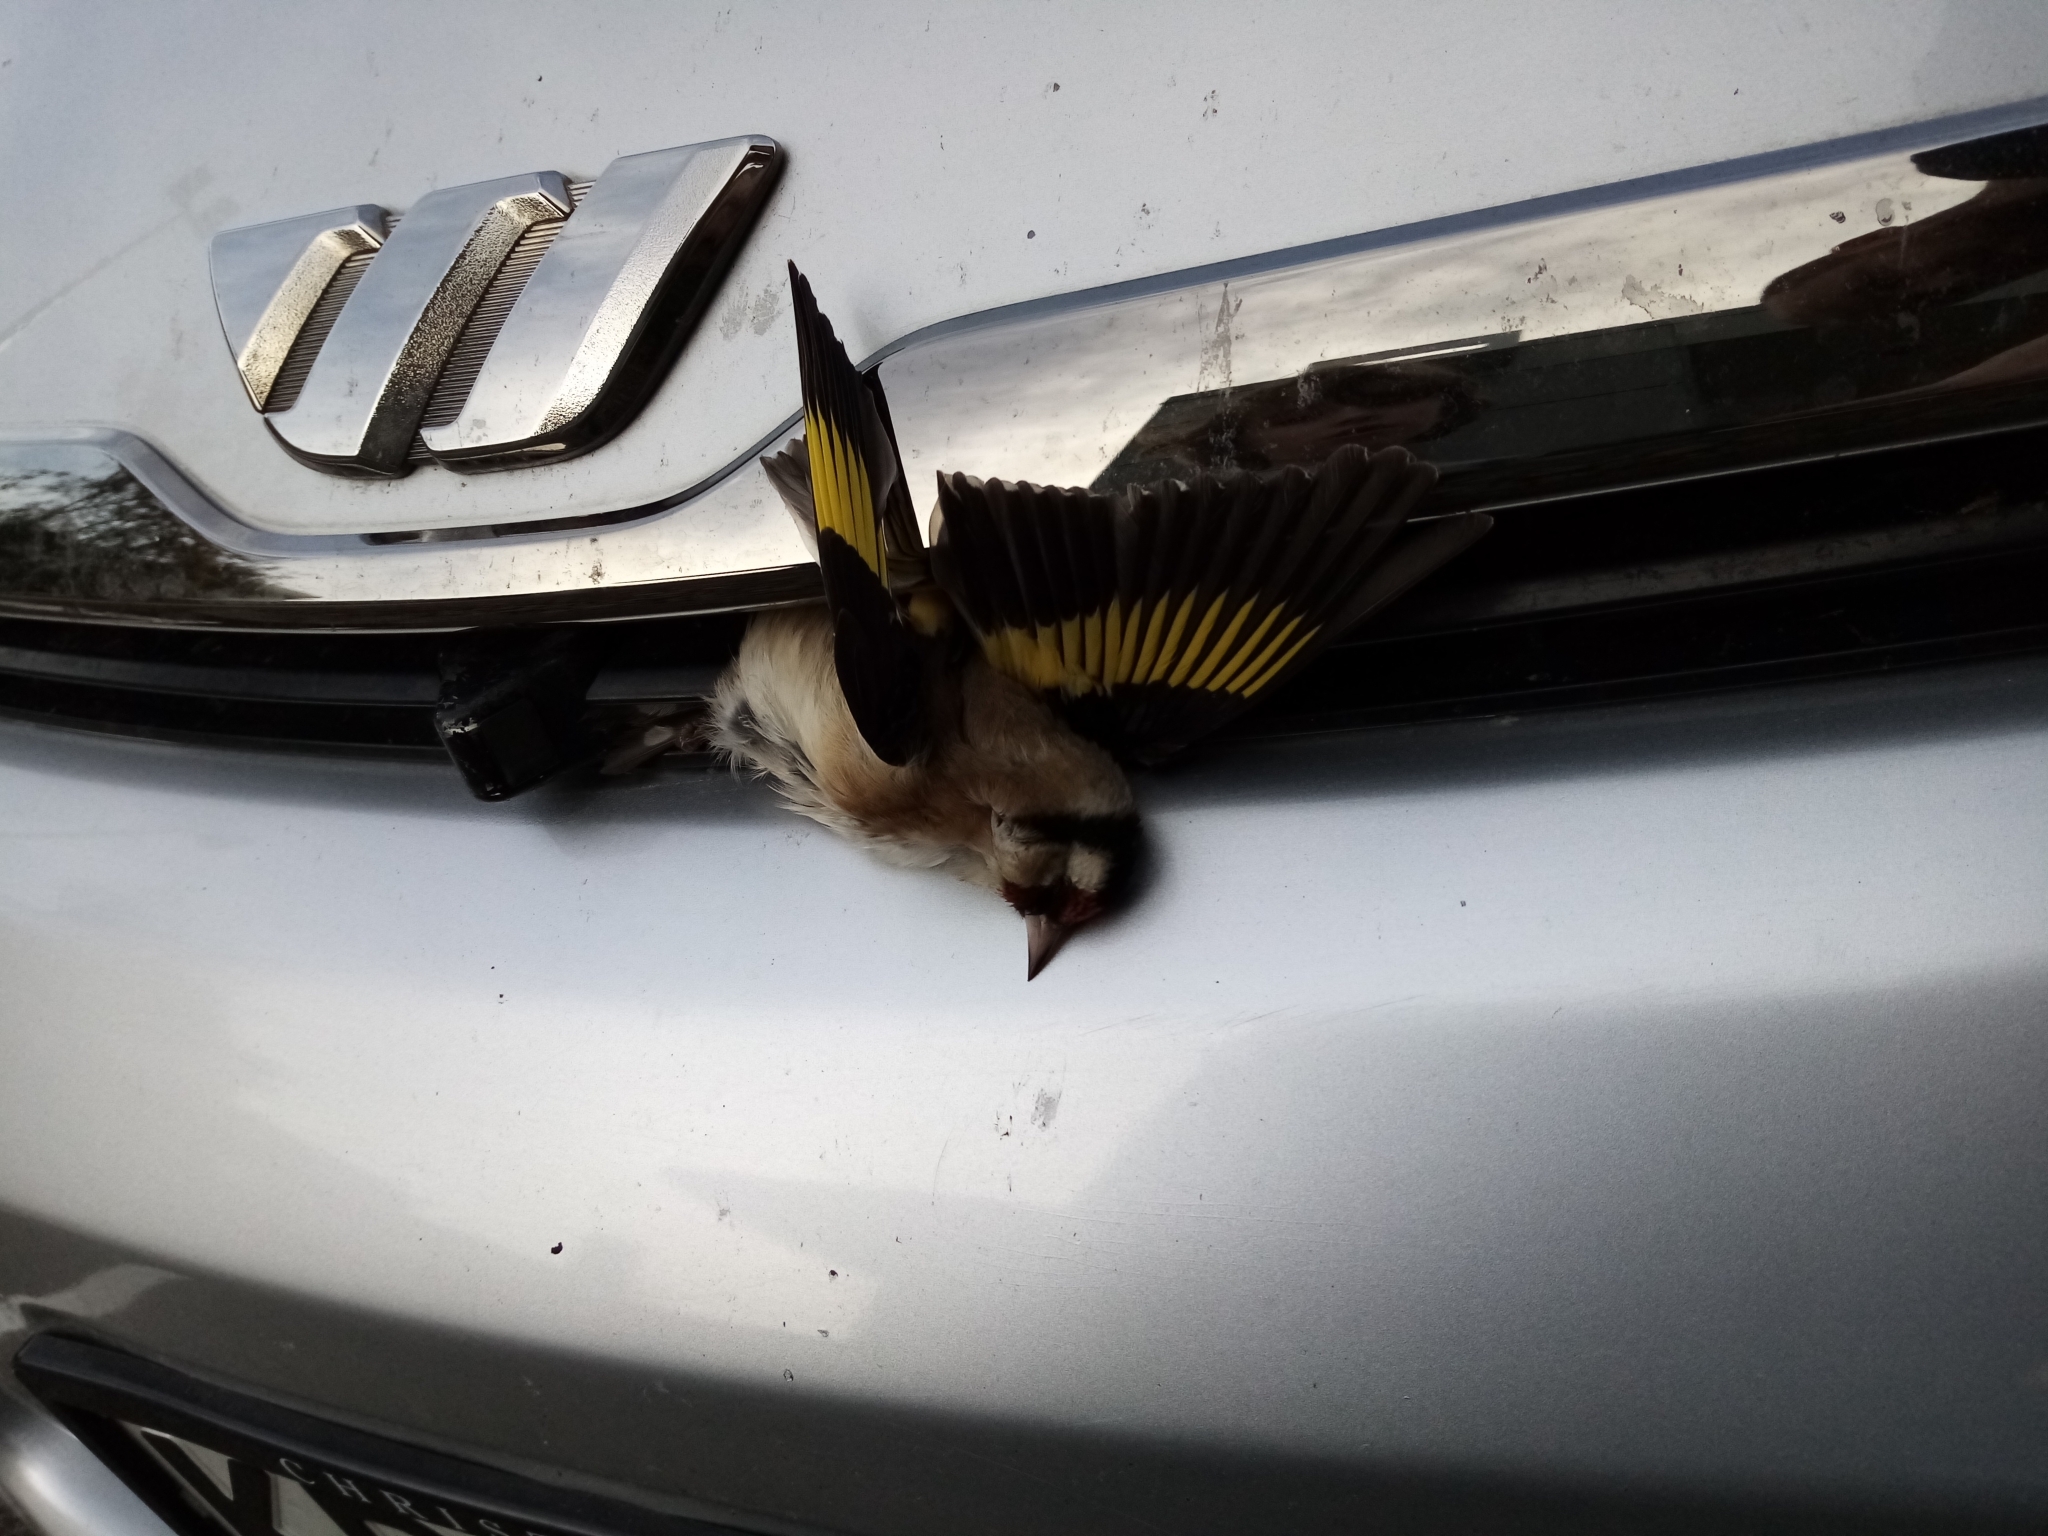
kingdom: Animalia
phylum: Chordata
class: Aves
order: Passeriformes
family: Fringillidae
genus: Carduelis
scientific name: Carduelis carduelis
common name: European goldfinch
